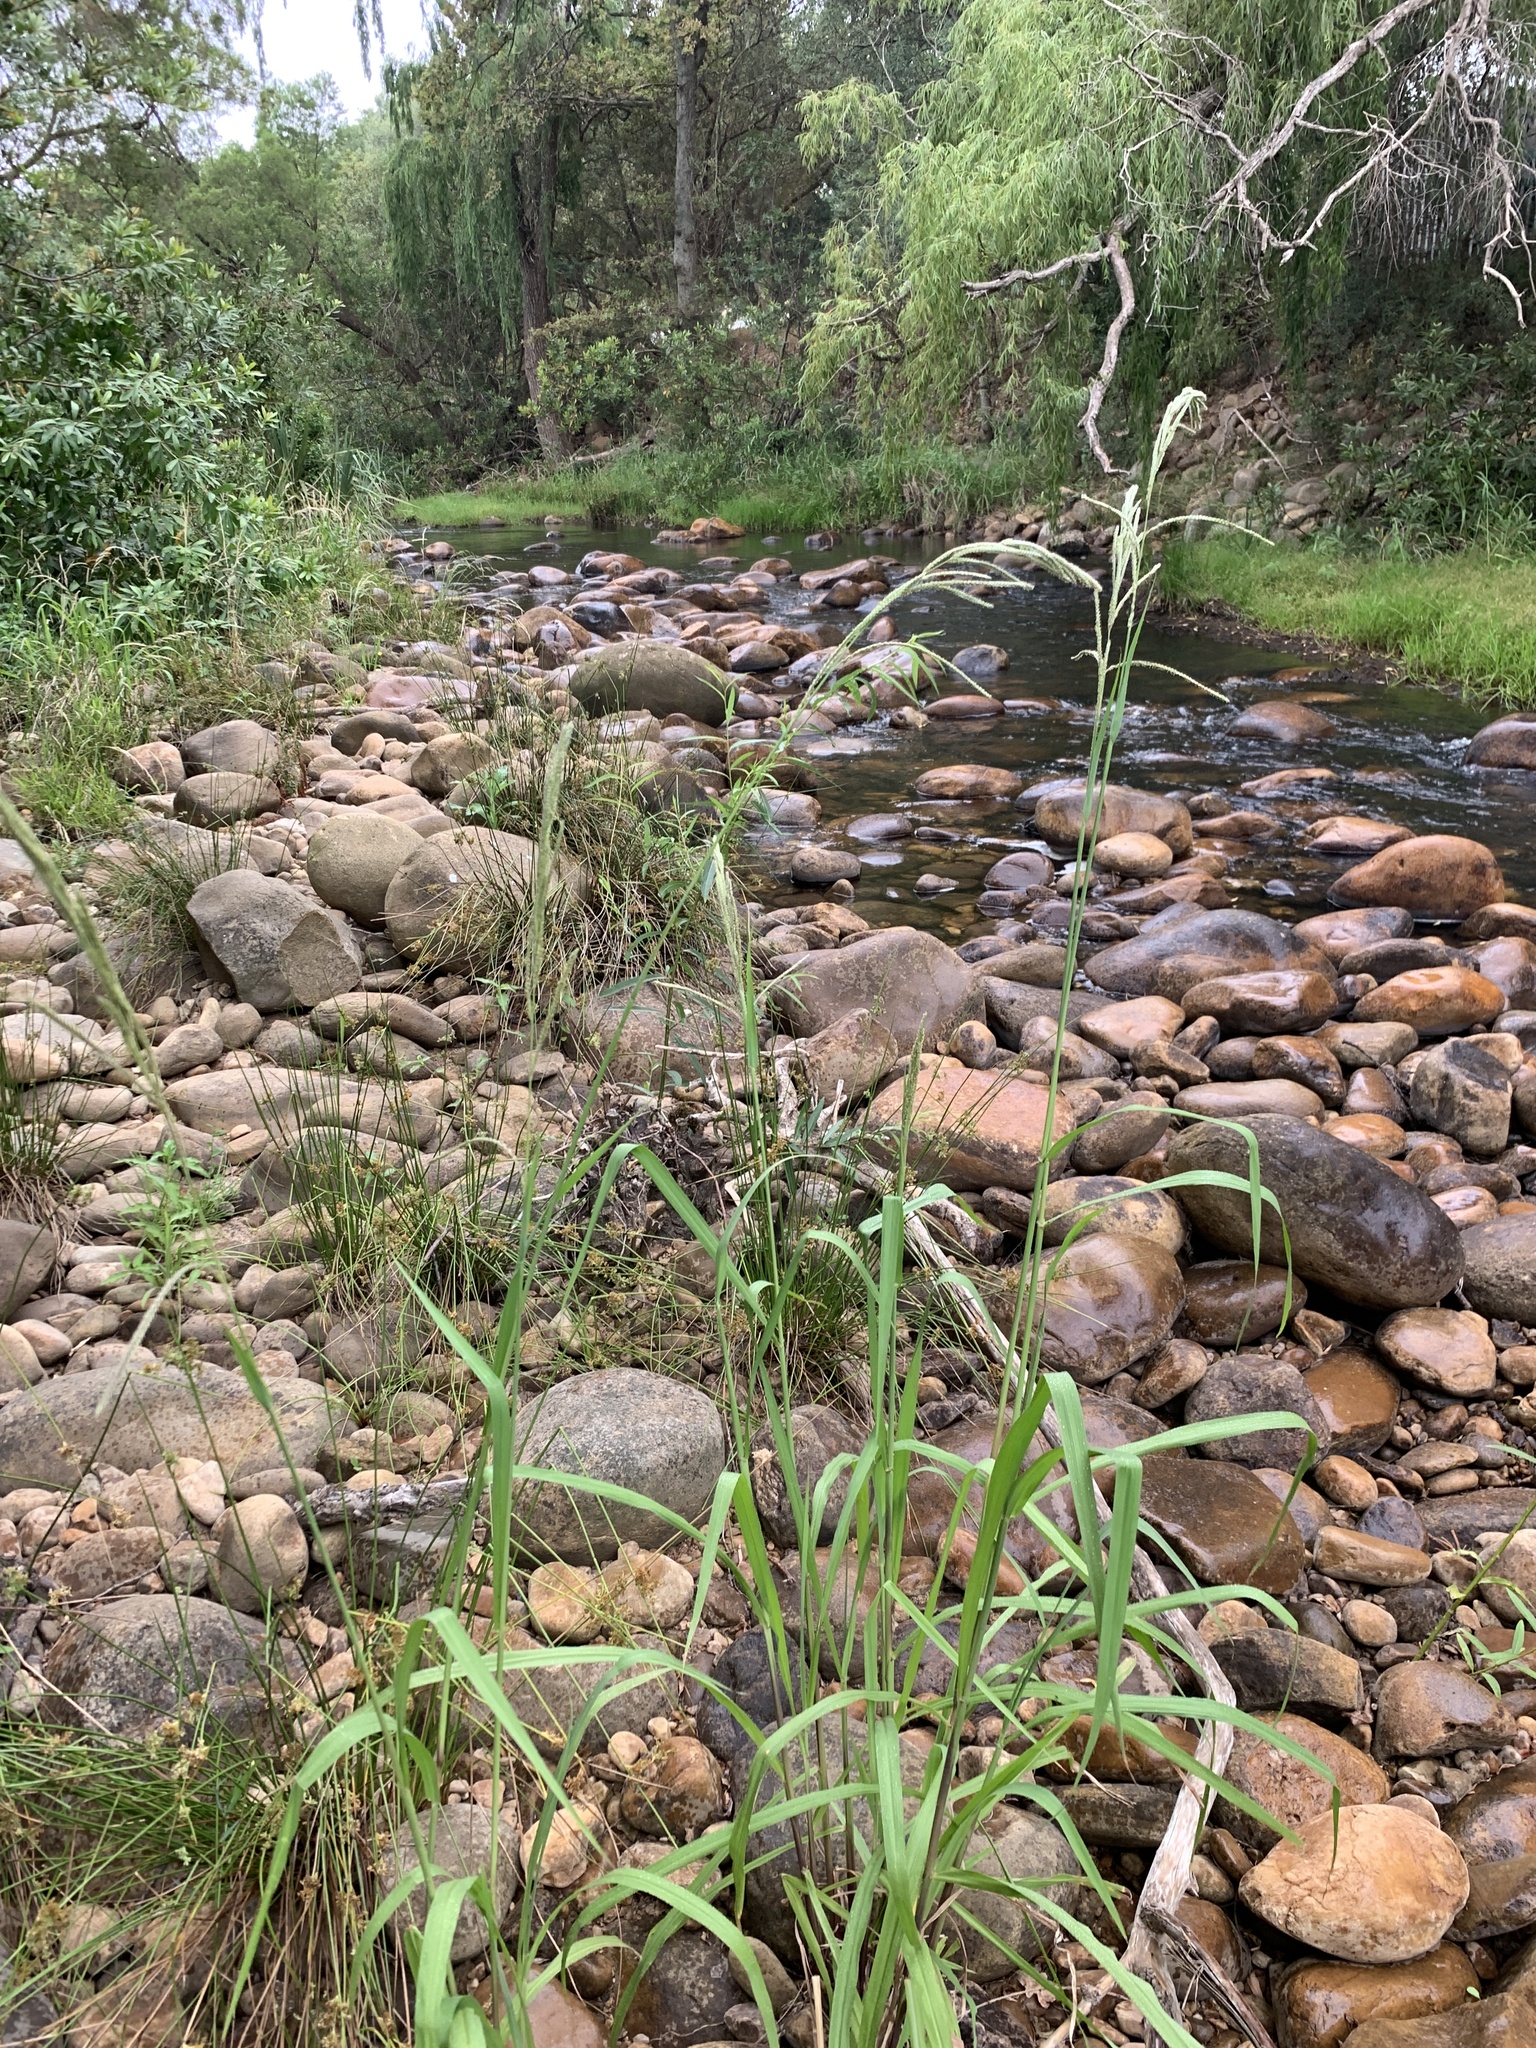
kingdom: Plantae
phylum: Tracheophyta
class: Liliopsida
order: Poales
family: Poaceae
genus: Paspalum
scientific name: Paspalum urvillei
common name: Vasey's grass
